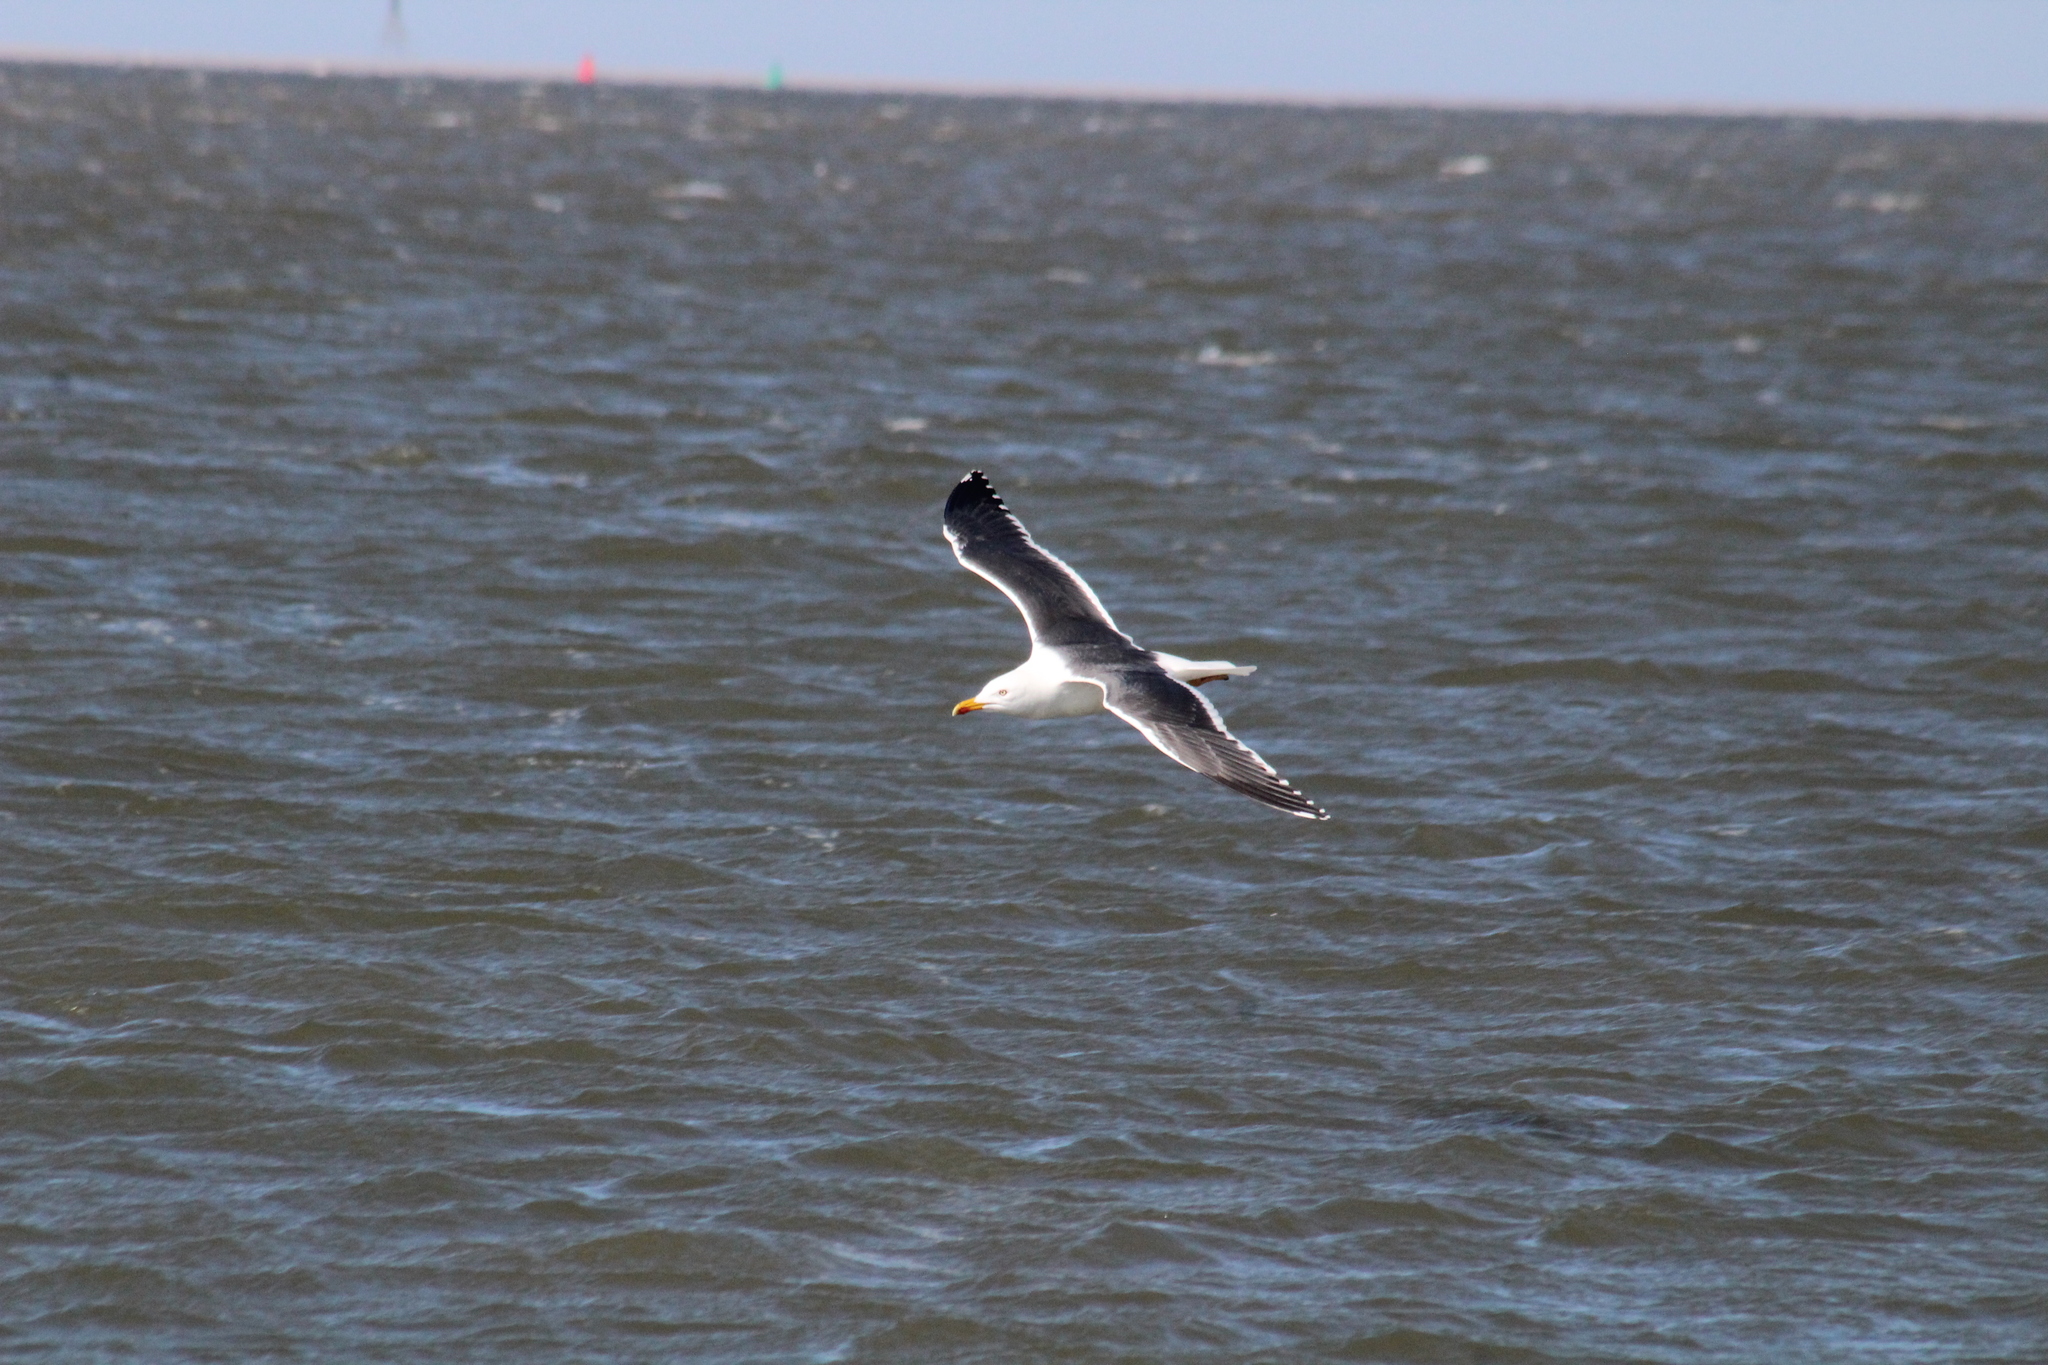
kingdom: Animalia
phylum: Chordata
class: Aves
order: Charadriiformes
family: Laridae
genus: Larus
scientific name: Larus fuscus
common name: Lesser black-backed gull
